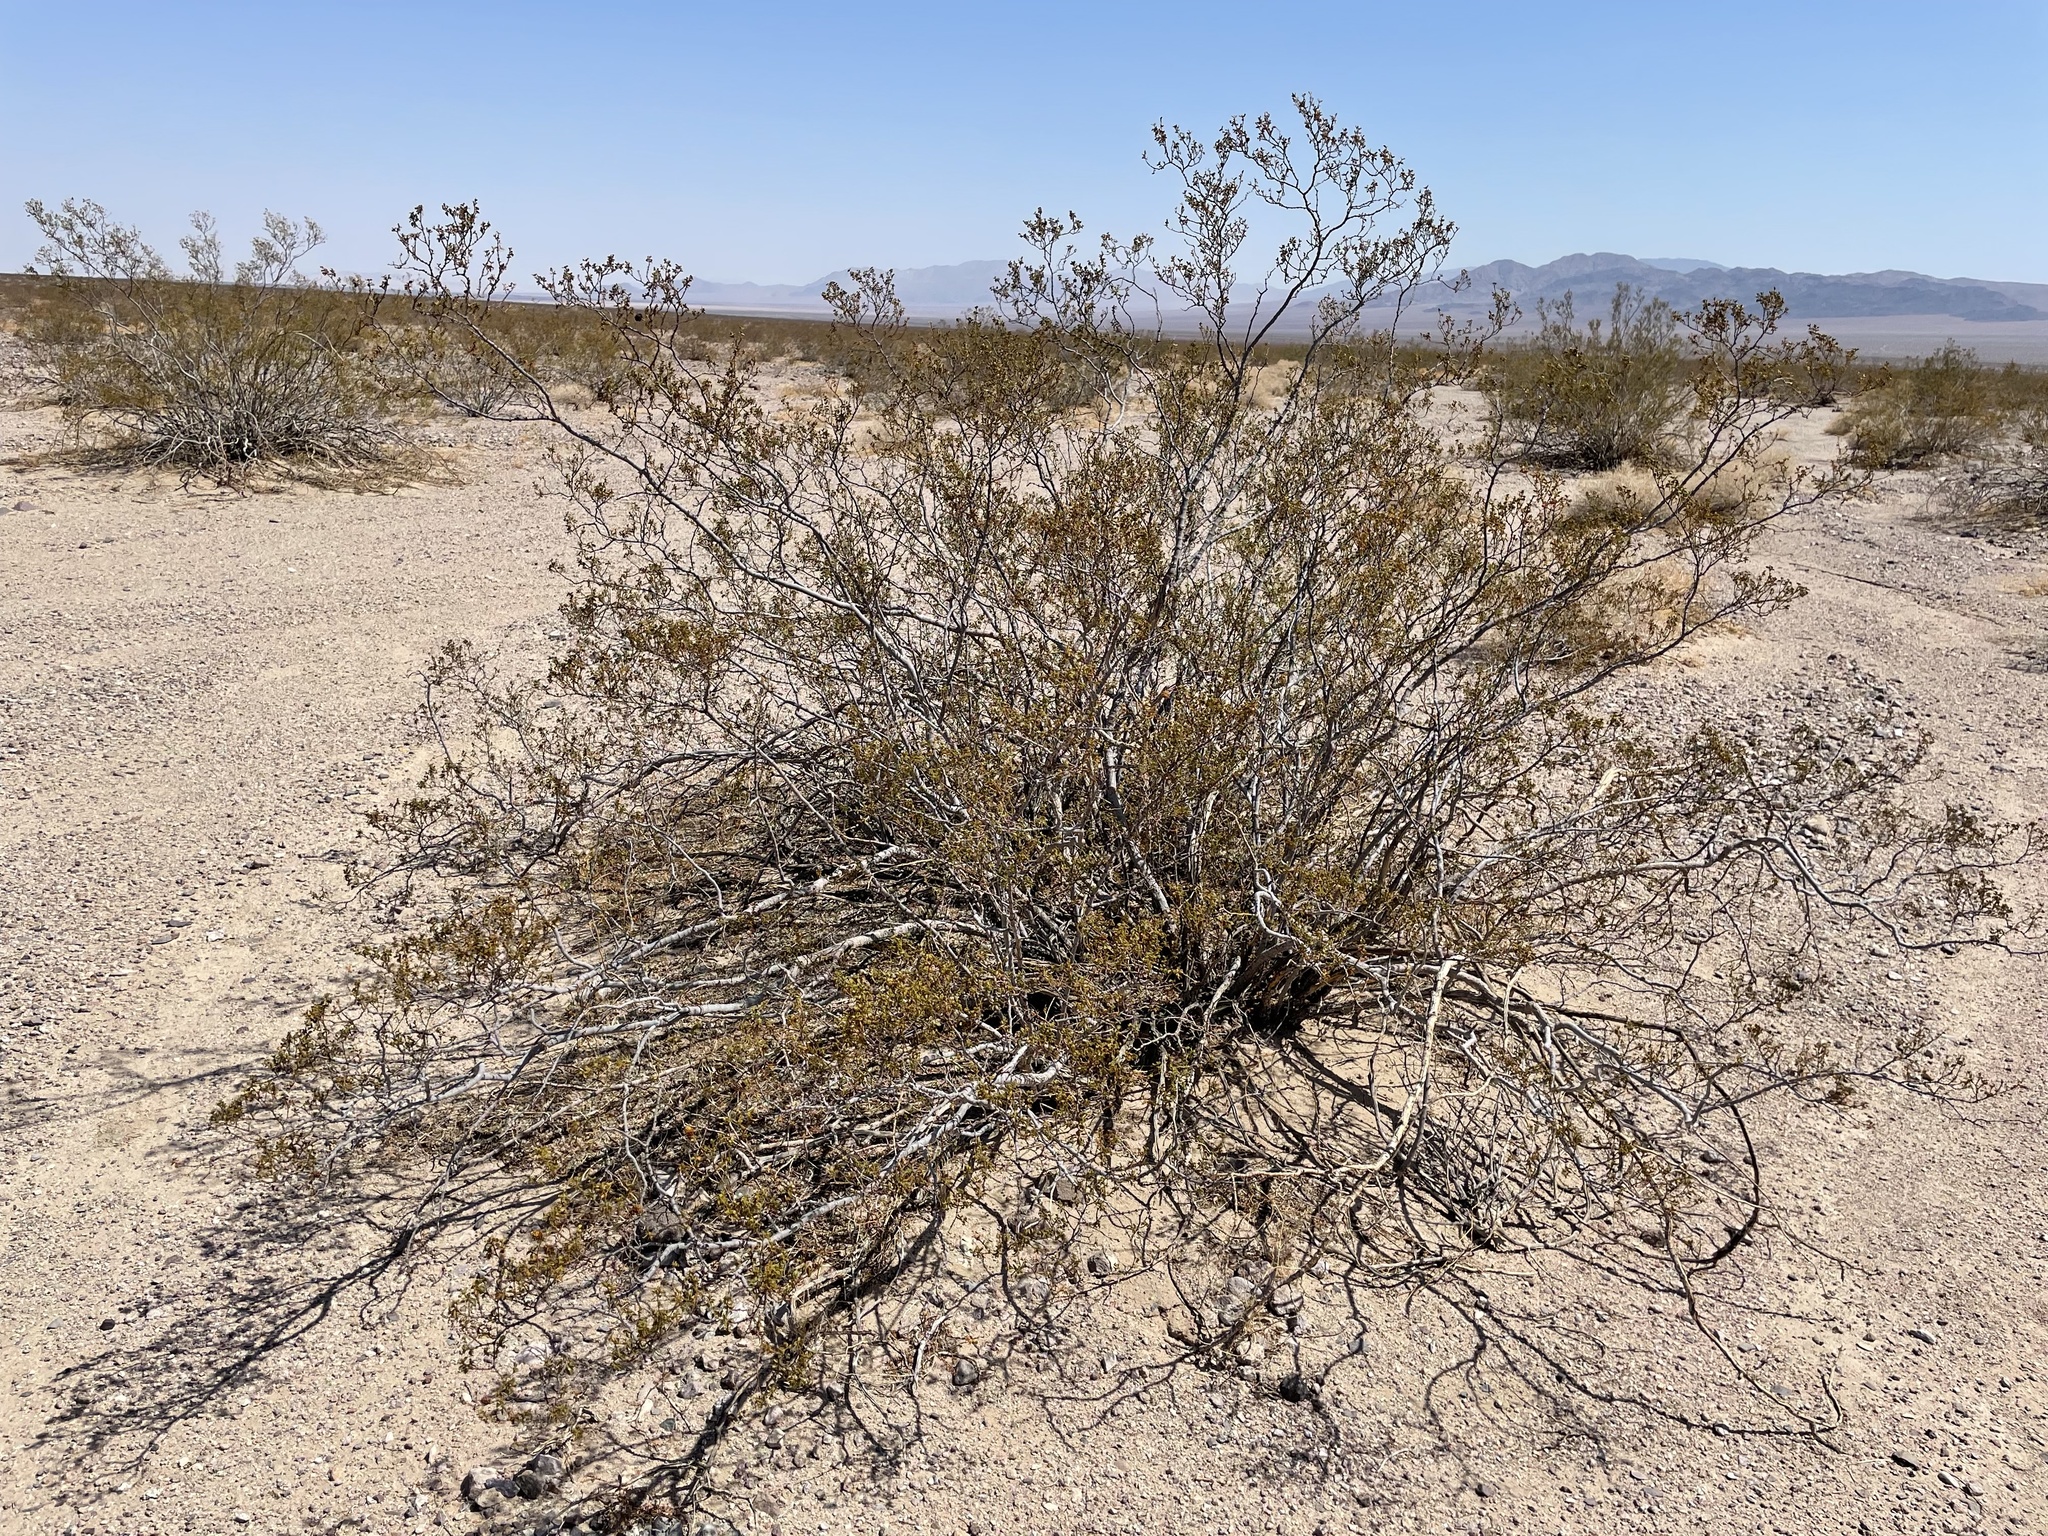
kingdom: Plantae
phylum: Tracheophyta
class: Magnoliopsida
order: Zygophyllales
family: Zygophyllaceae
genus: Larrea
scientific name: Larrea tridentata
